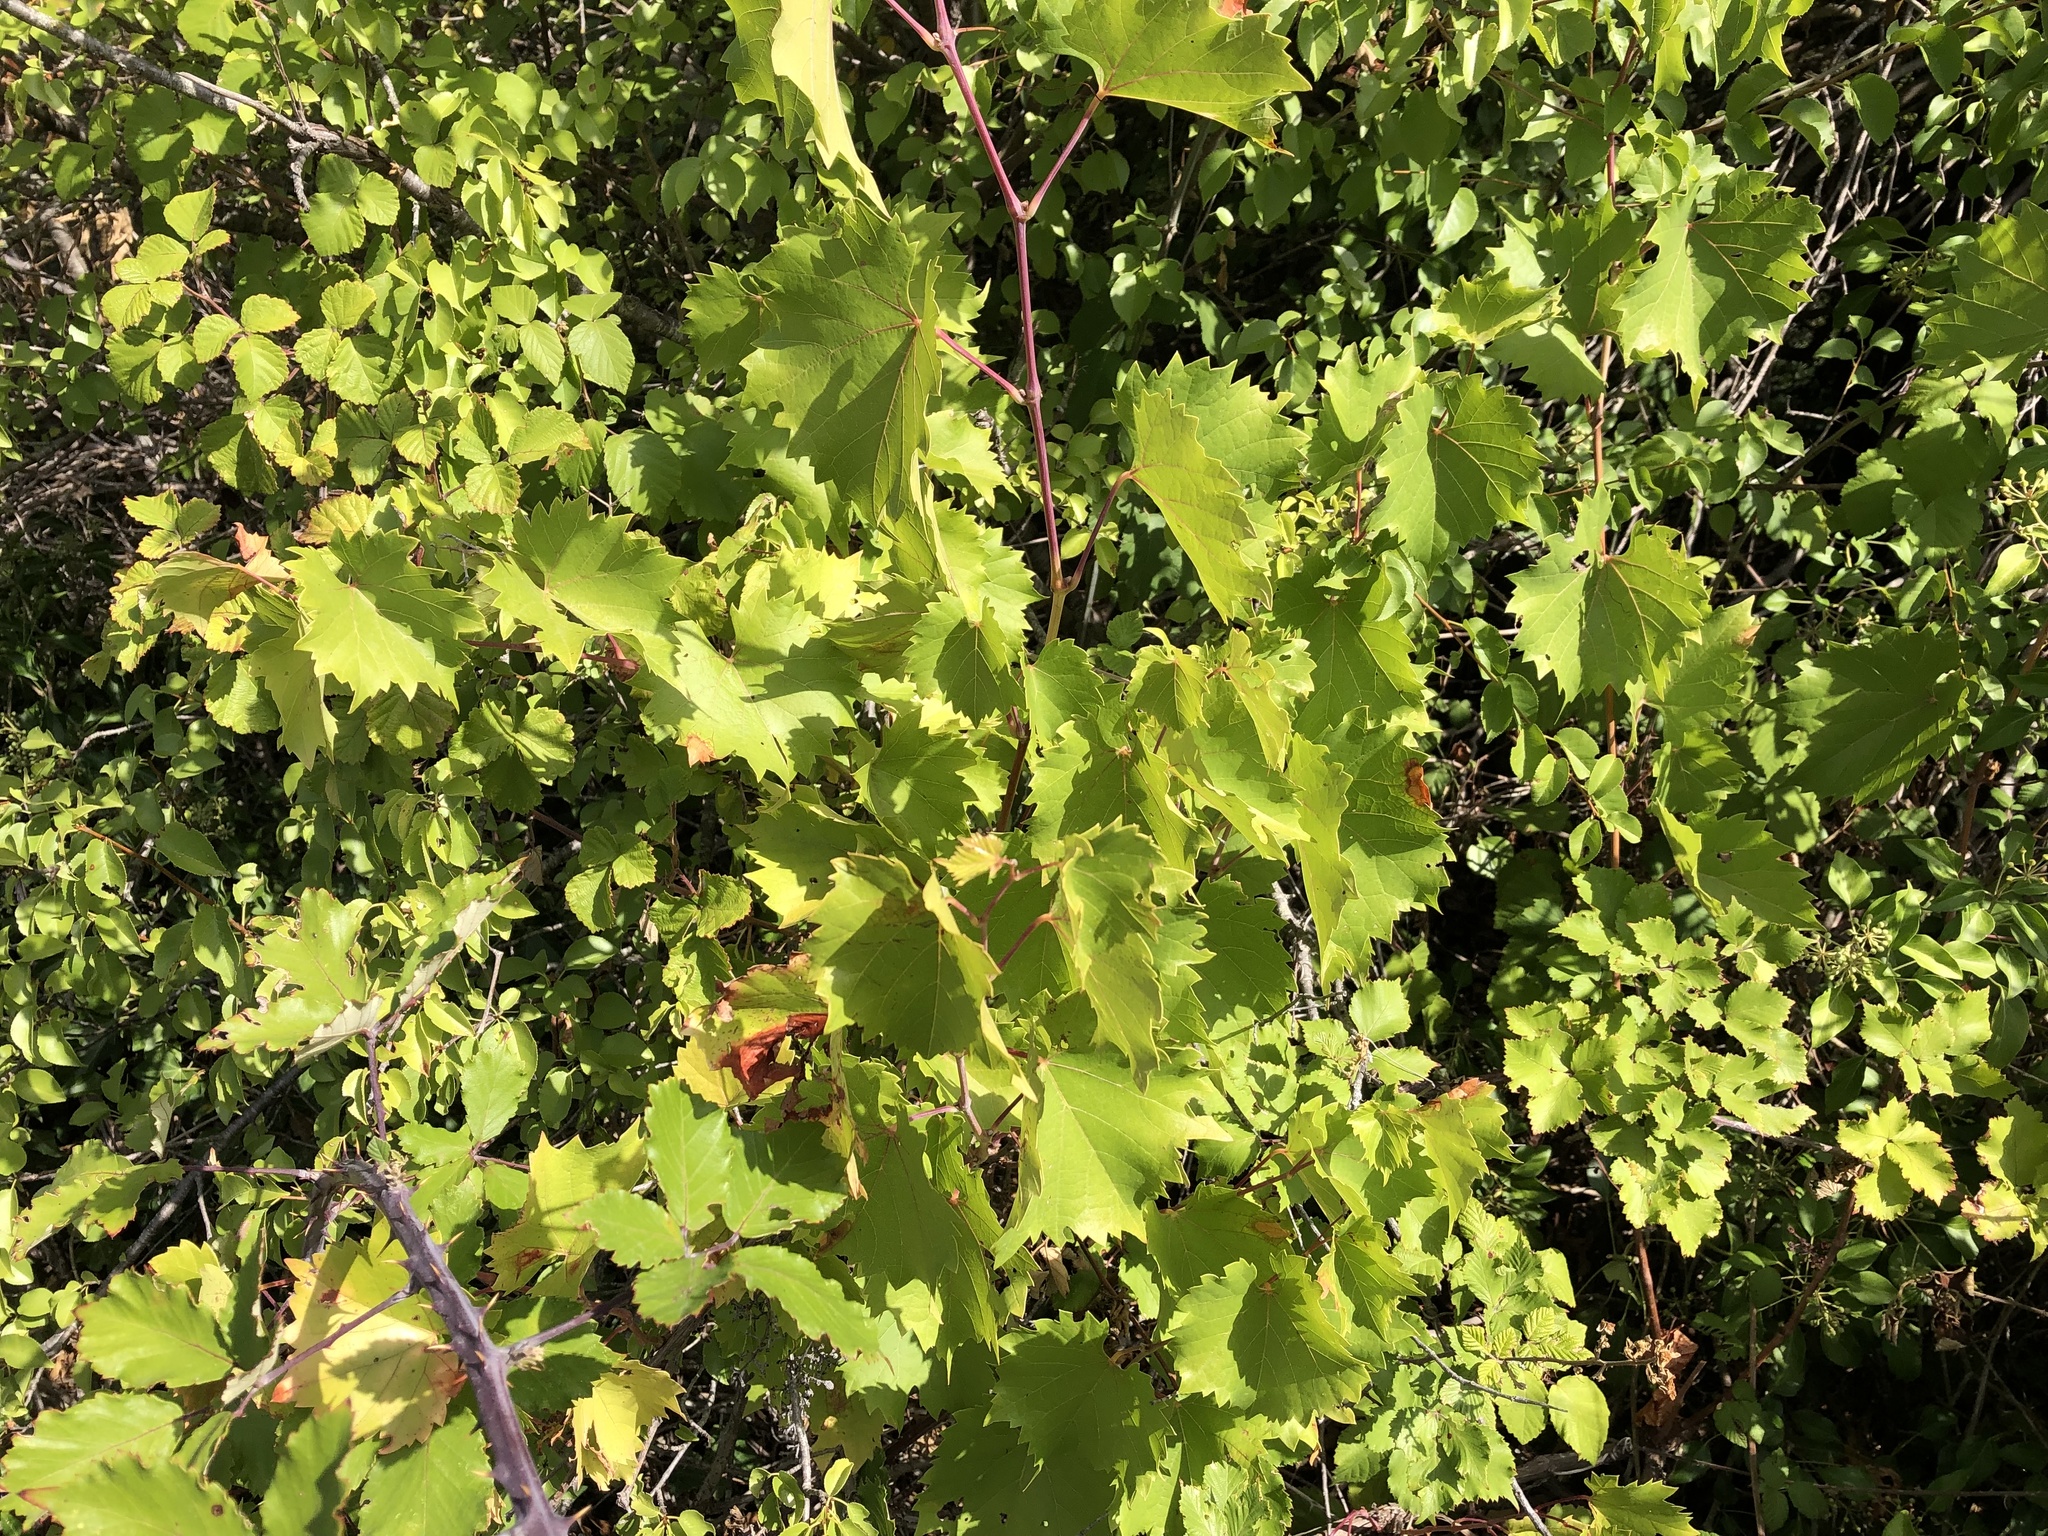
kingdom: Plantae
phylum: Tracheophyta
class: Magnoliopsida
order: Vitales
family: Vitaceae
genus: Vitis
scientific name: Vitis vinifera
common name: Grape-vine
